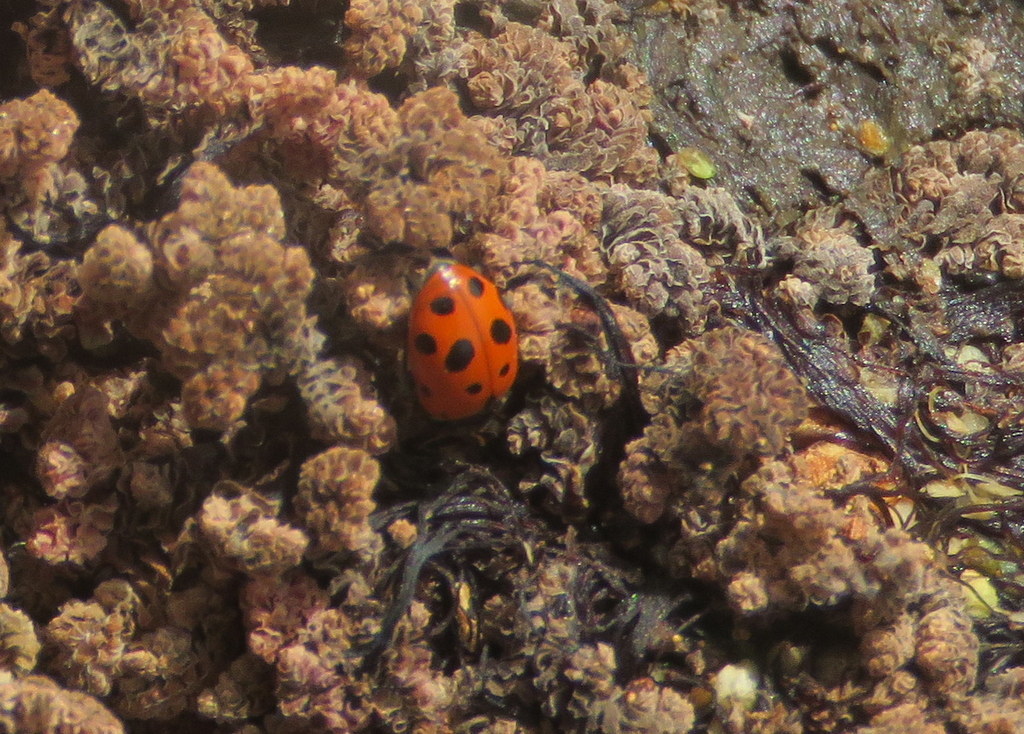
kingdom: Animalia
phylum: Arthropoda
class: Insecta
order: Coleoptera
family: Coccinellidae
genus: Hippodamia
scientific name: Hippodamia variegata
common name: Ladybird beetle
